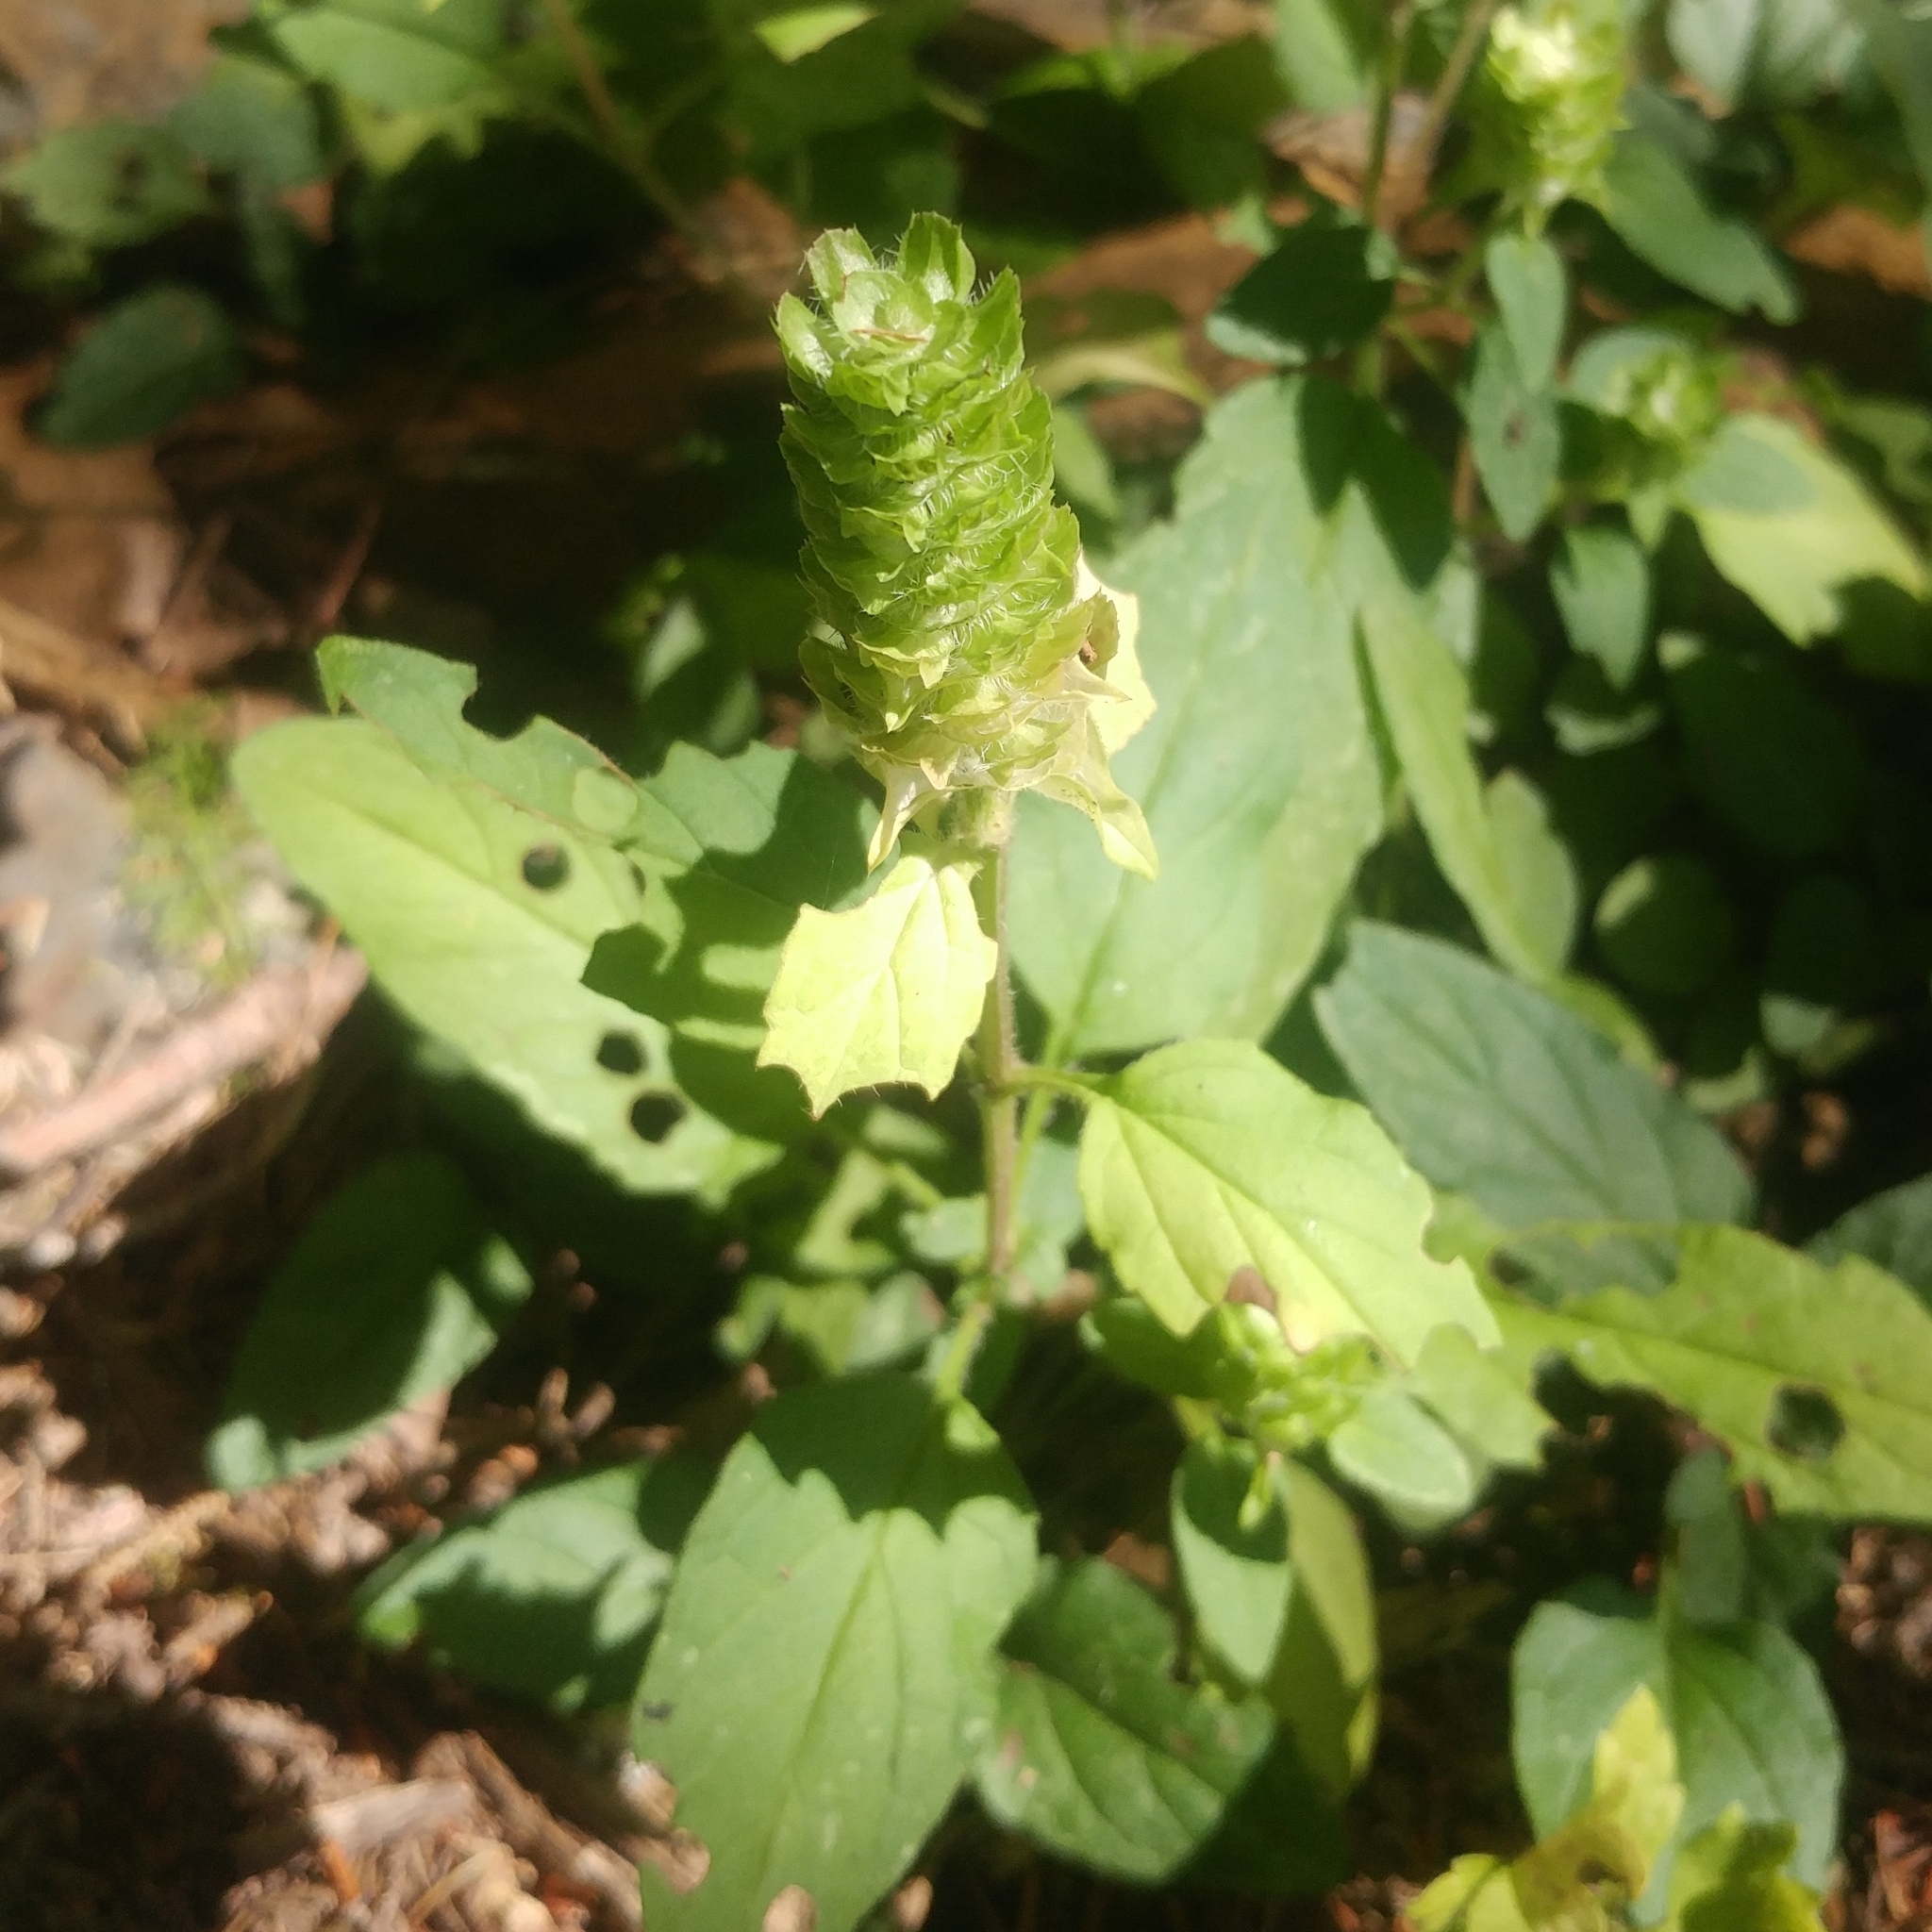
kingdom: Plantae
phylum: Tracheophyta
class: Magnoliopsida
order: Lamiales
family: Lamiaceae
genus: Prunella
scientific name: Prunella vulgaris
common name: Heal-all
